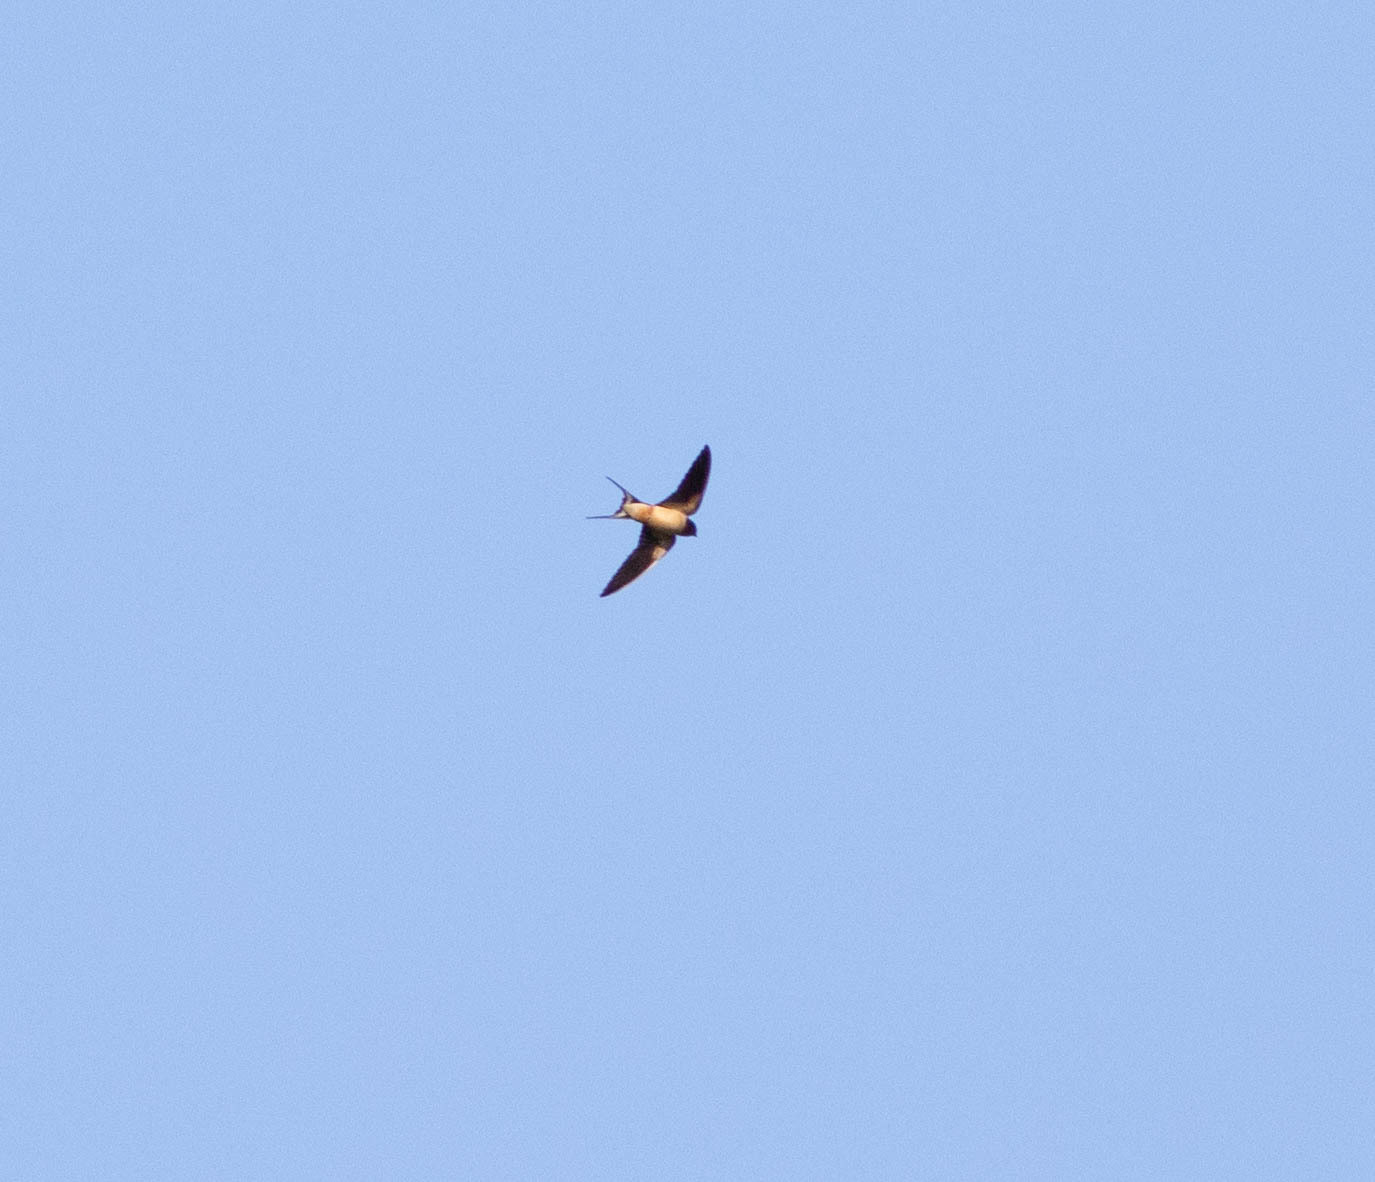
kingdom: Animalia
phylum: Chordata
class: Aves
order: Passeriformes
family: Hirundinidae
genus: Hirundo
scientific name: Hirundo rustica
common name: Barn swallow
